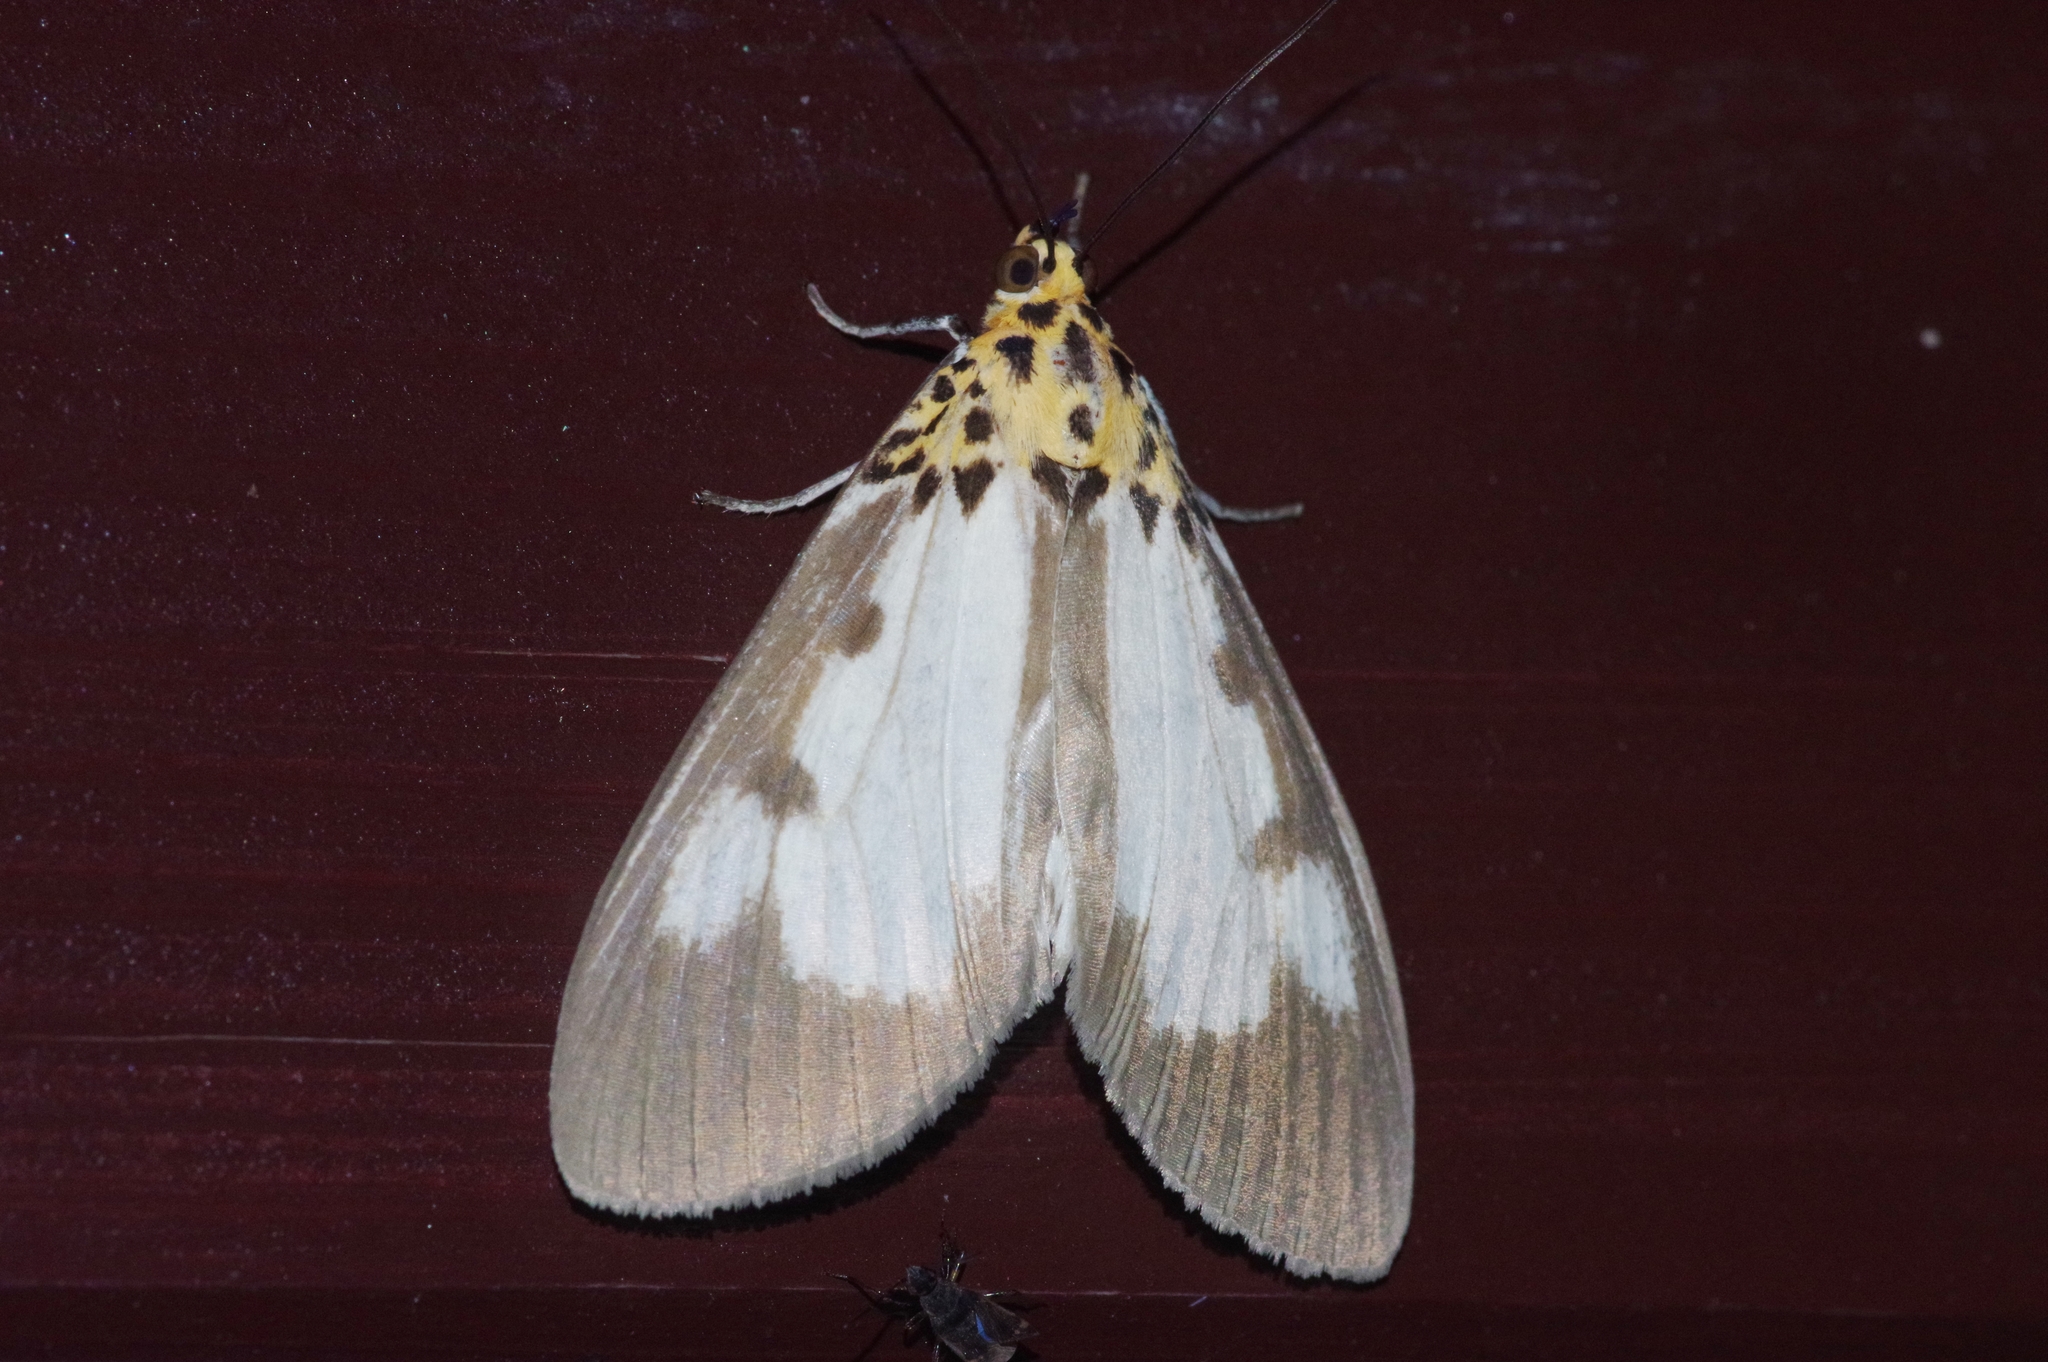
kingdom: Animalia
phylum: Arthropoda
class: Insecta
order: Lepidoptera
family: Erebidae
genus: Asota
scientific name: Asota plana
